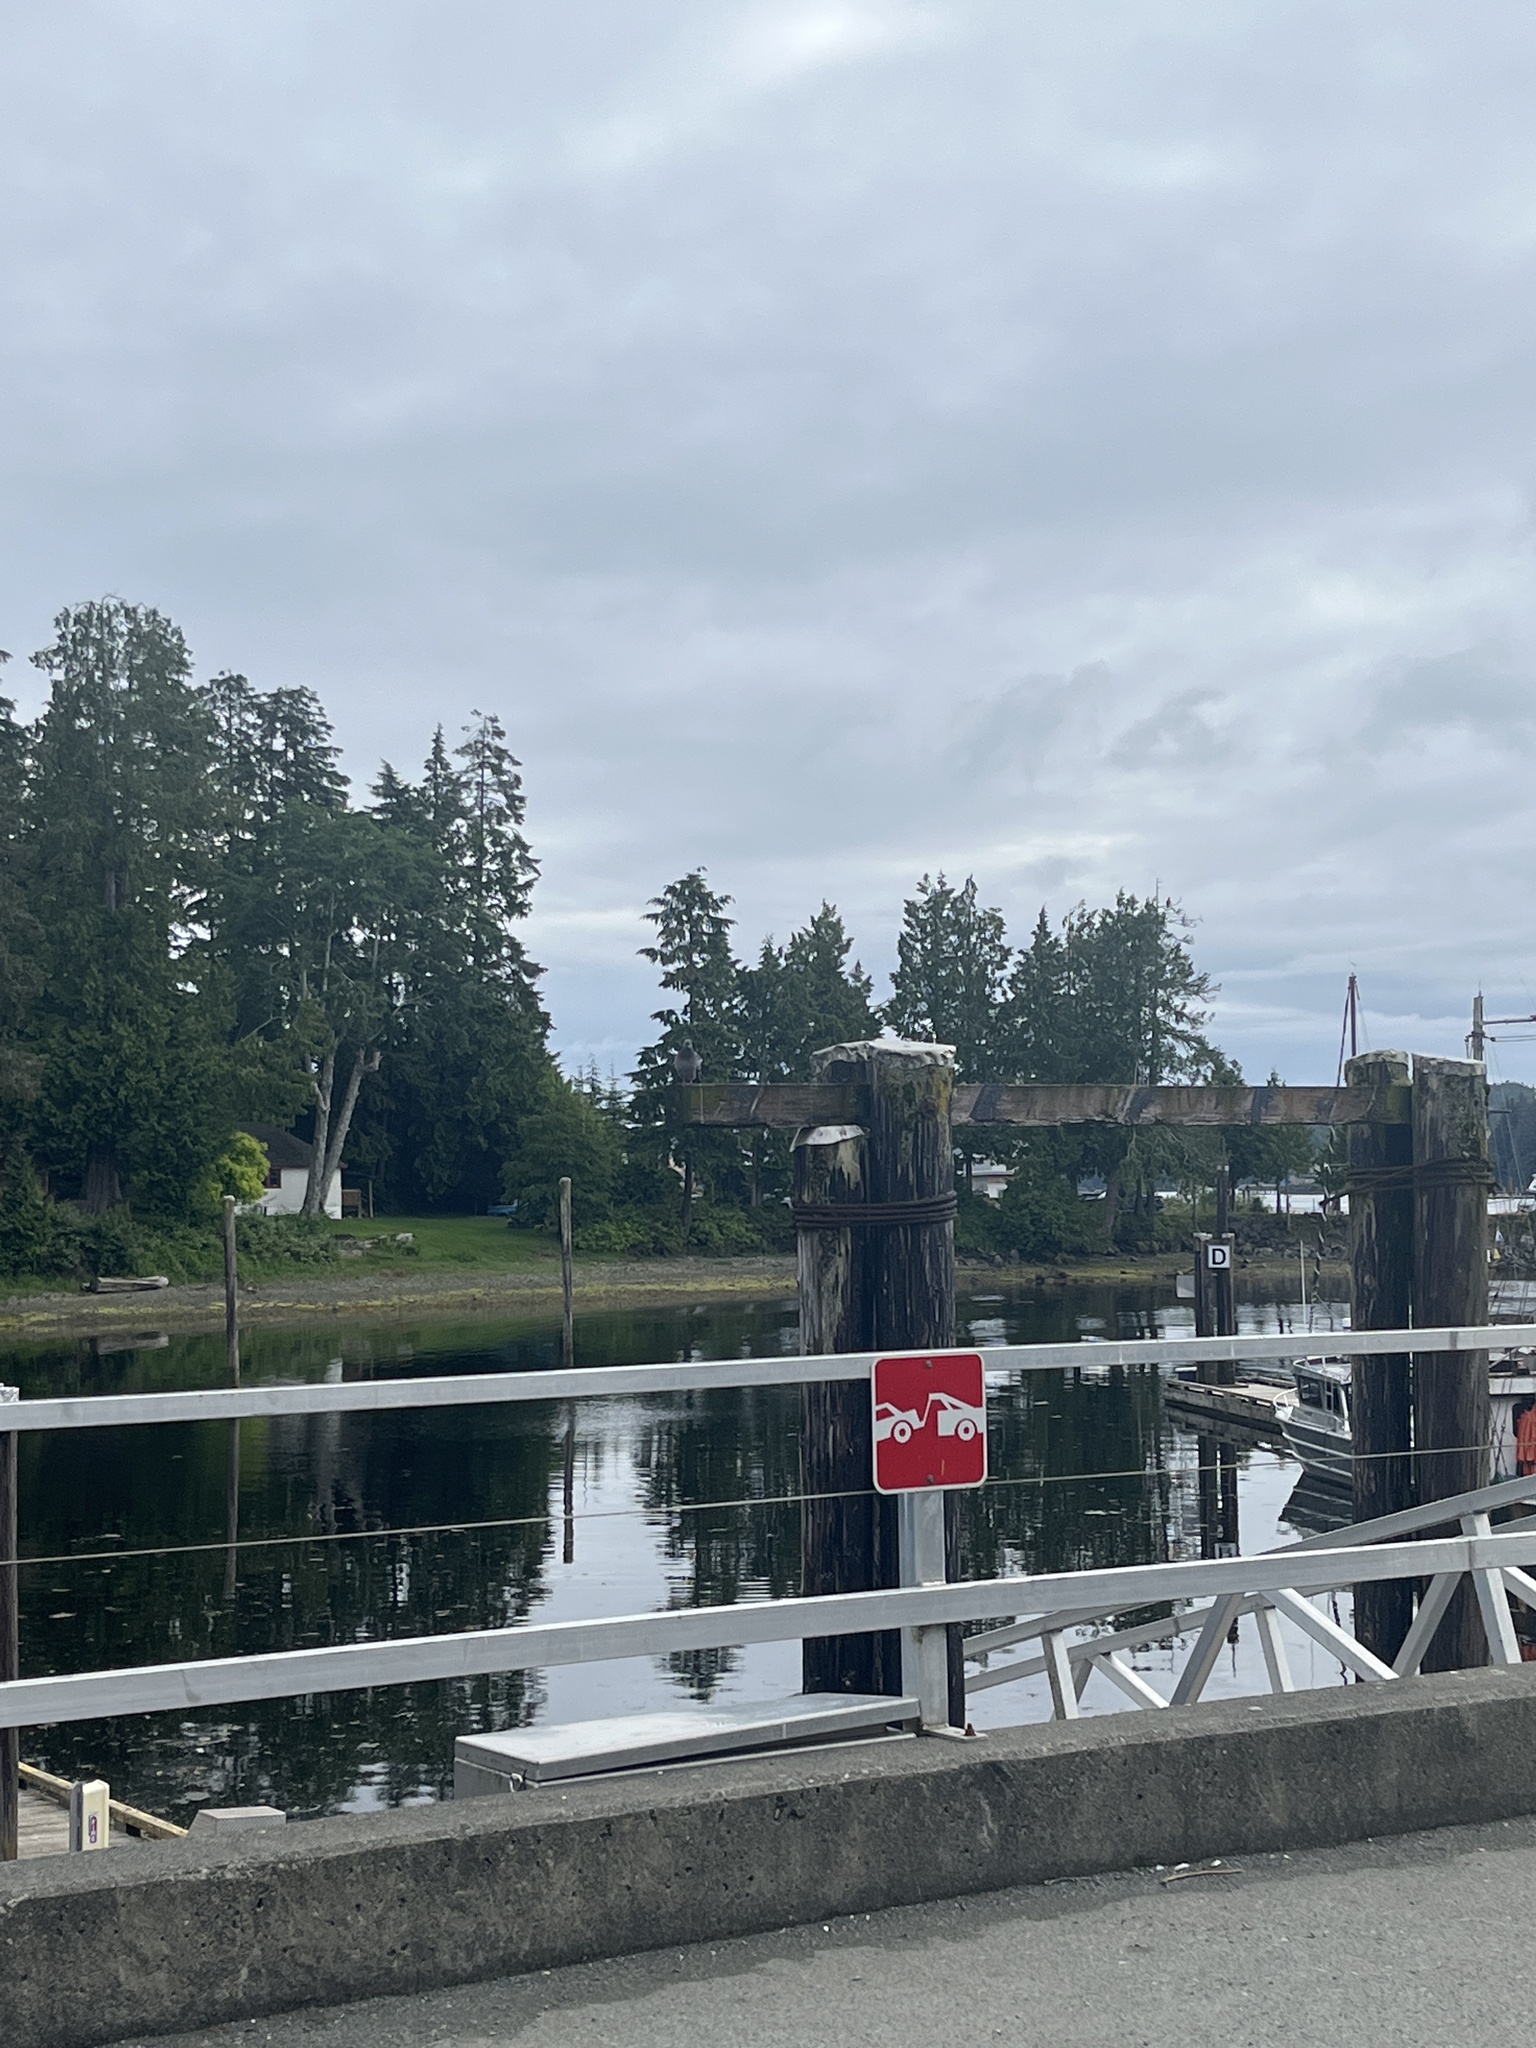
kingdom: Animalia
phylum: Chordata
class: Aves
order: Columbiformes
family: Columbidae
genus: Columba
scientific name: Columba livia
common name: Rock pigeon
